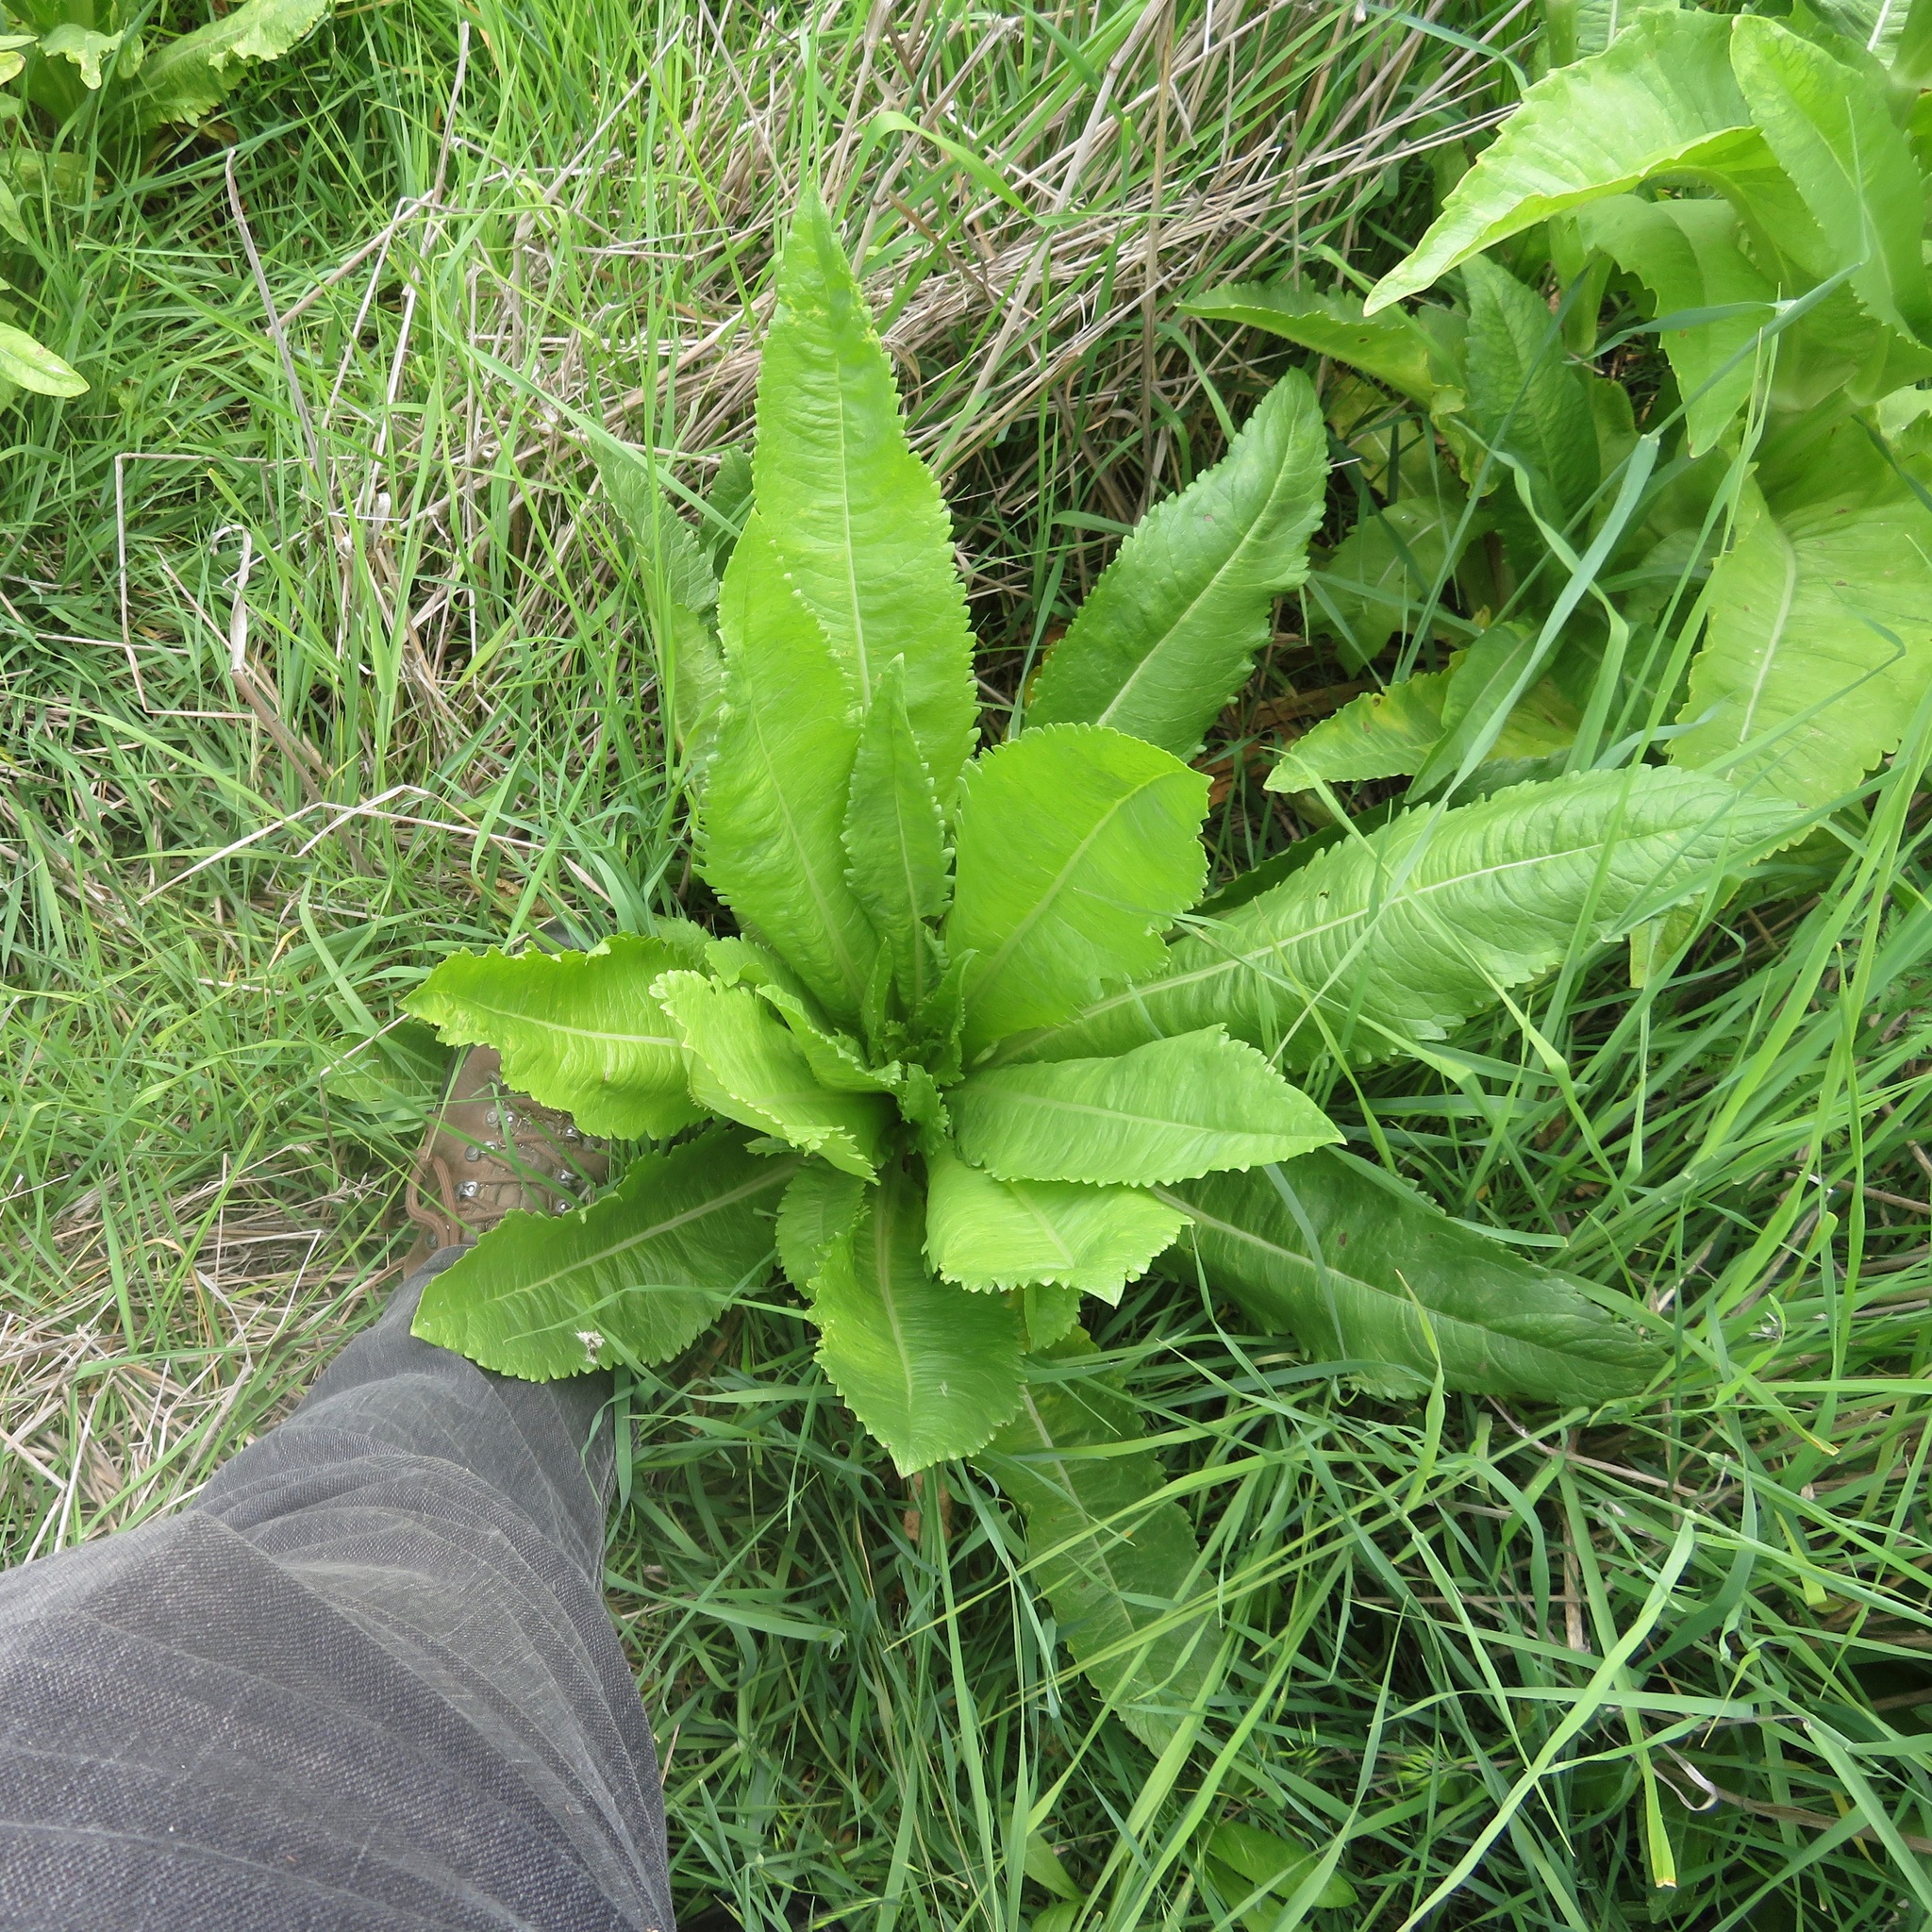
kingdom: Plantae
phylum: Tracheophyta
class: Magnoliopsida
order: Dipsacales
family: Caprifoliaceae
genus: Dipsacus
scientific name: Dipsacus sativus
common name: Fuller's teasel
